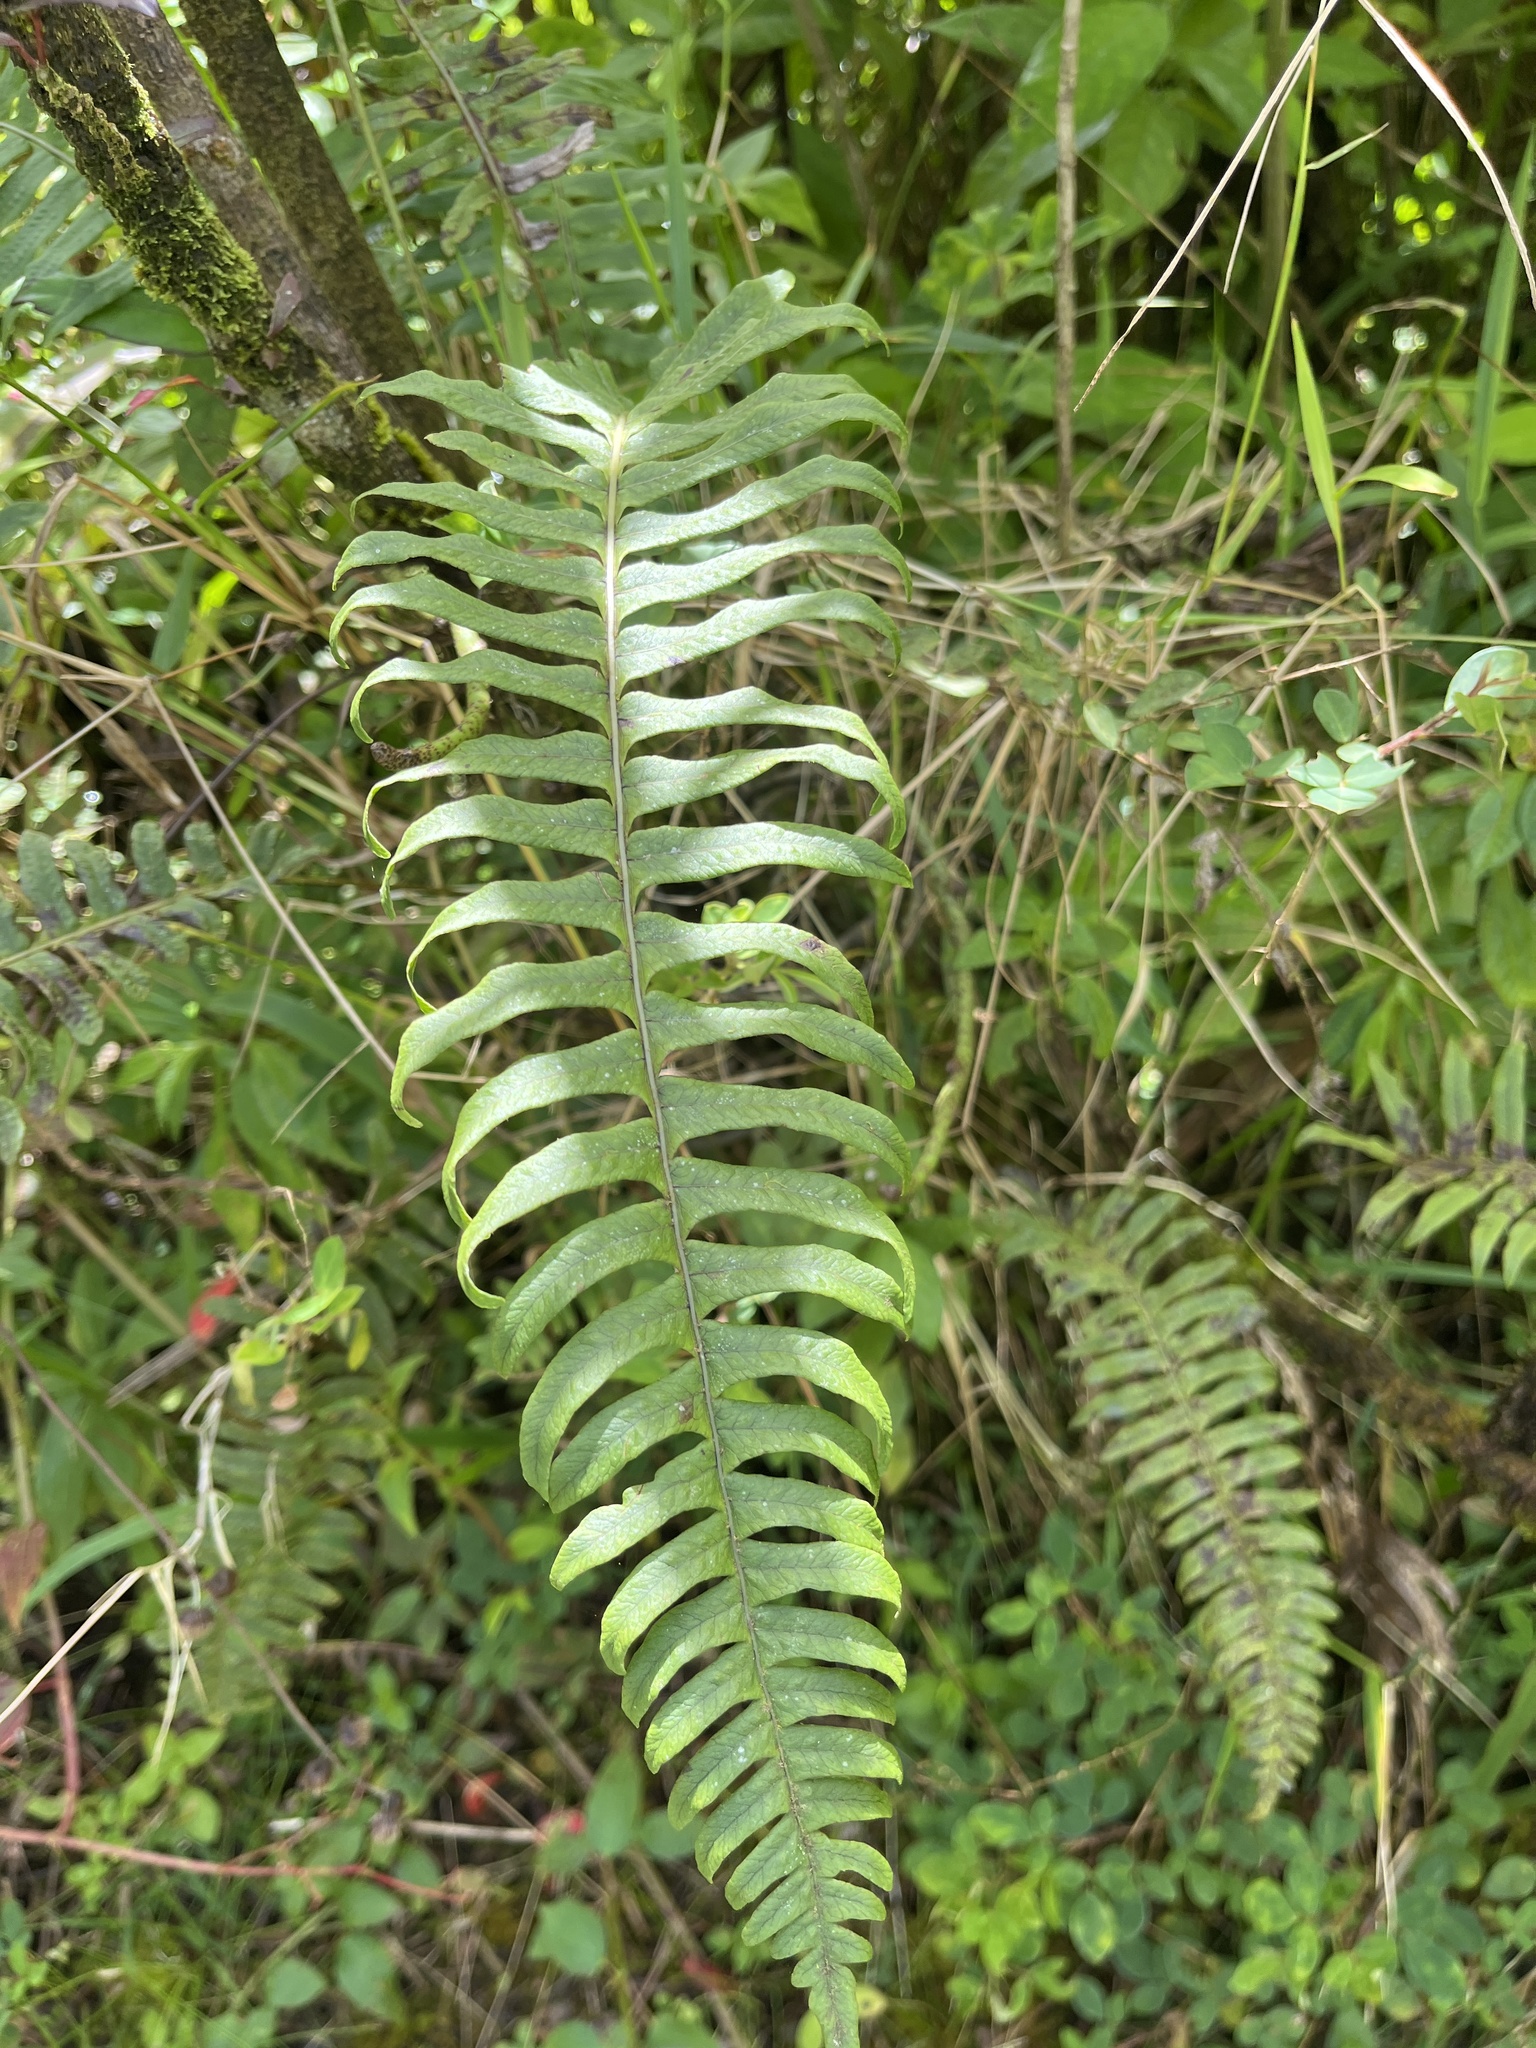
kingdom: Plantae
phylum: Tracheophyta
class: Polypodiopsida
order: Polypodiales
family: Polypodiaceae
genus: Serpocaulon
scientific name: Serpocaulon loriceum
